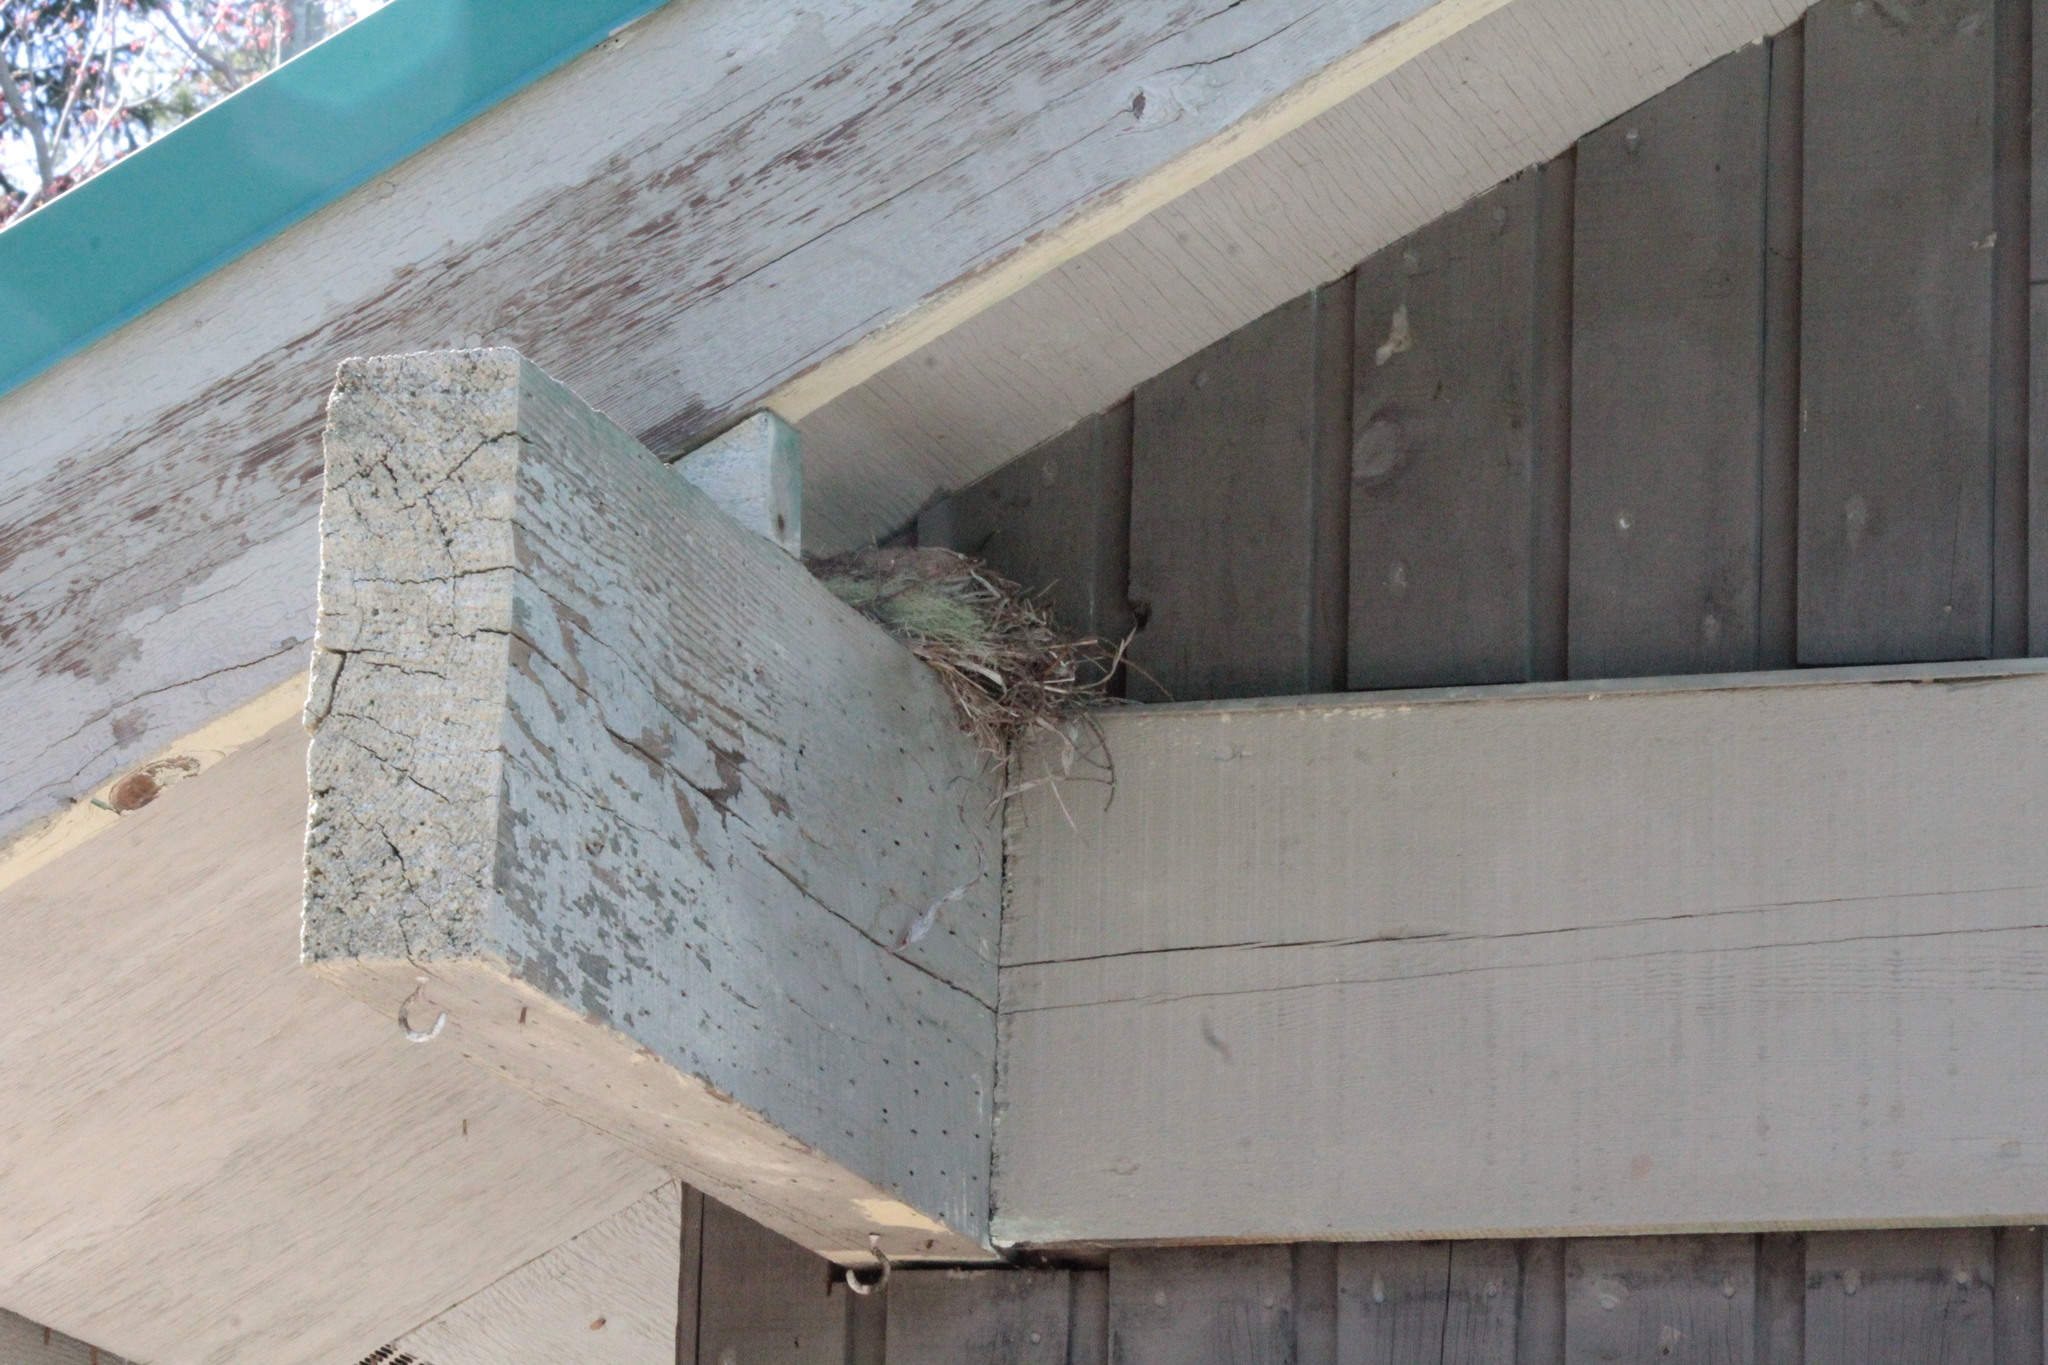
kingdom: Animalia
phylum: Chordata
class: Aves
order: Passeriformes
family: Turdidae
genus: Turdus
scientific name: Turdus migratorius
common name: American robin
